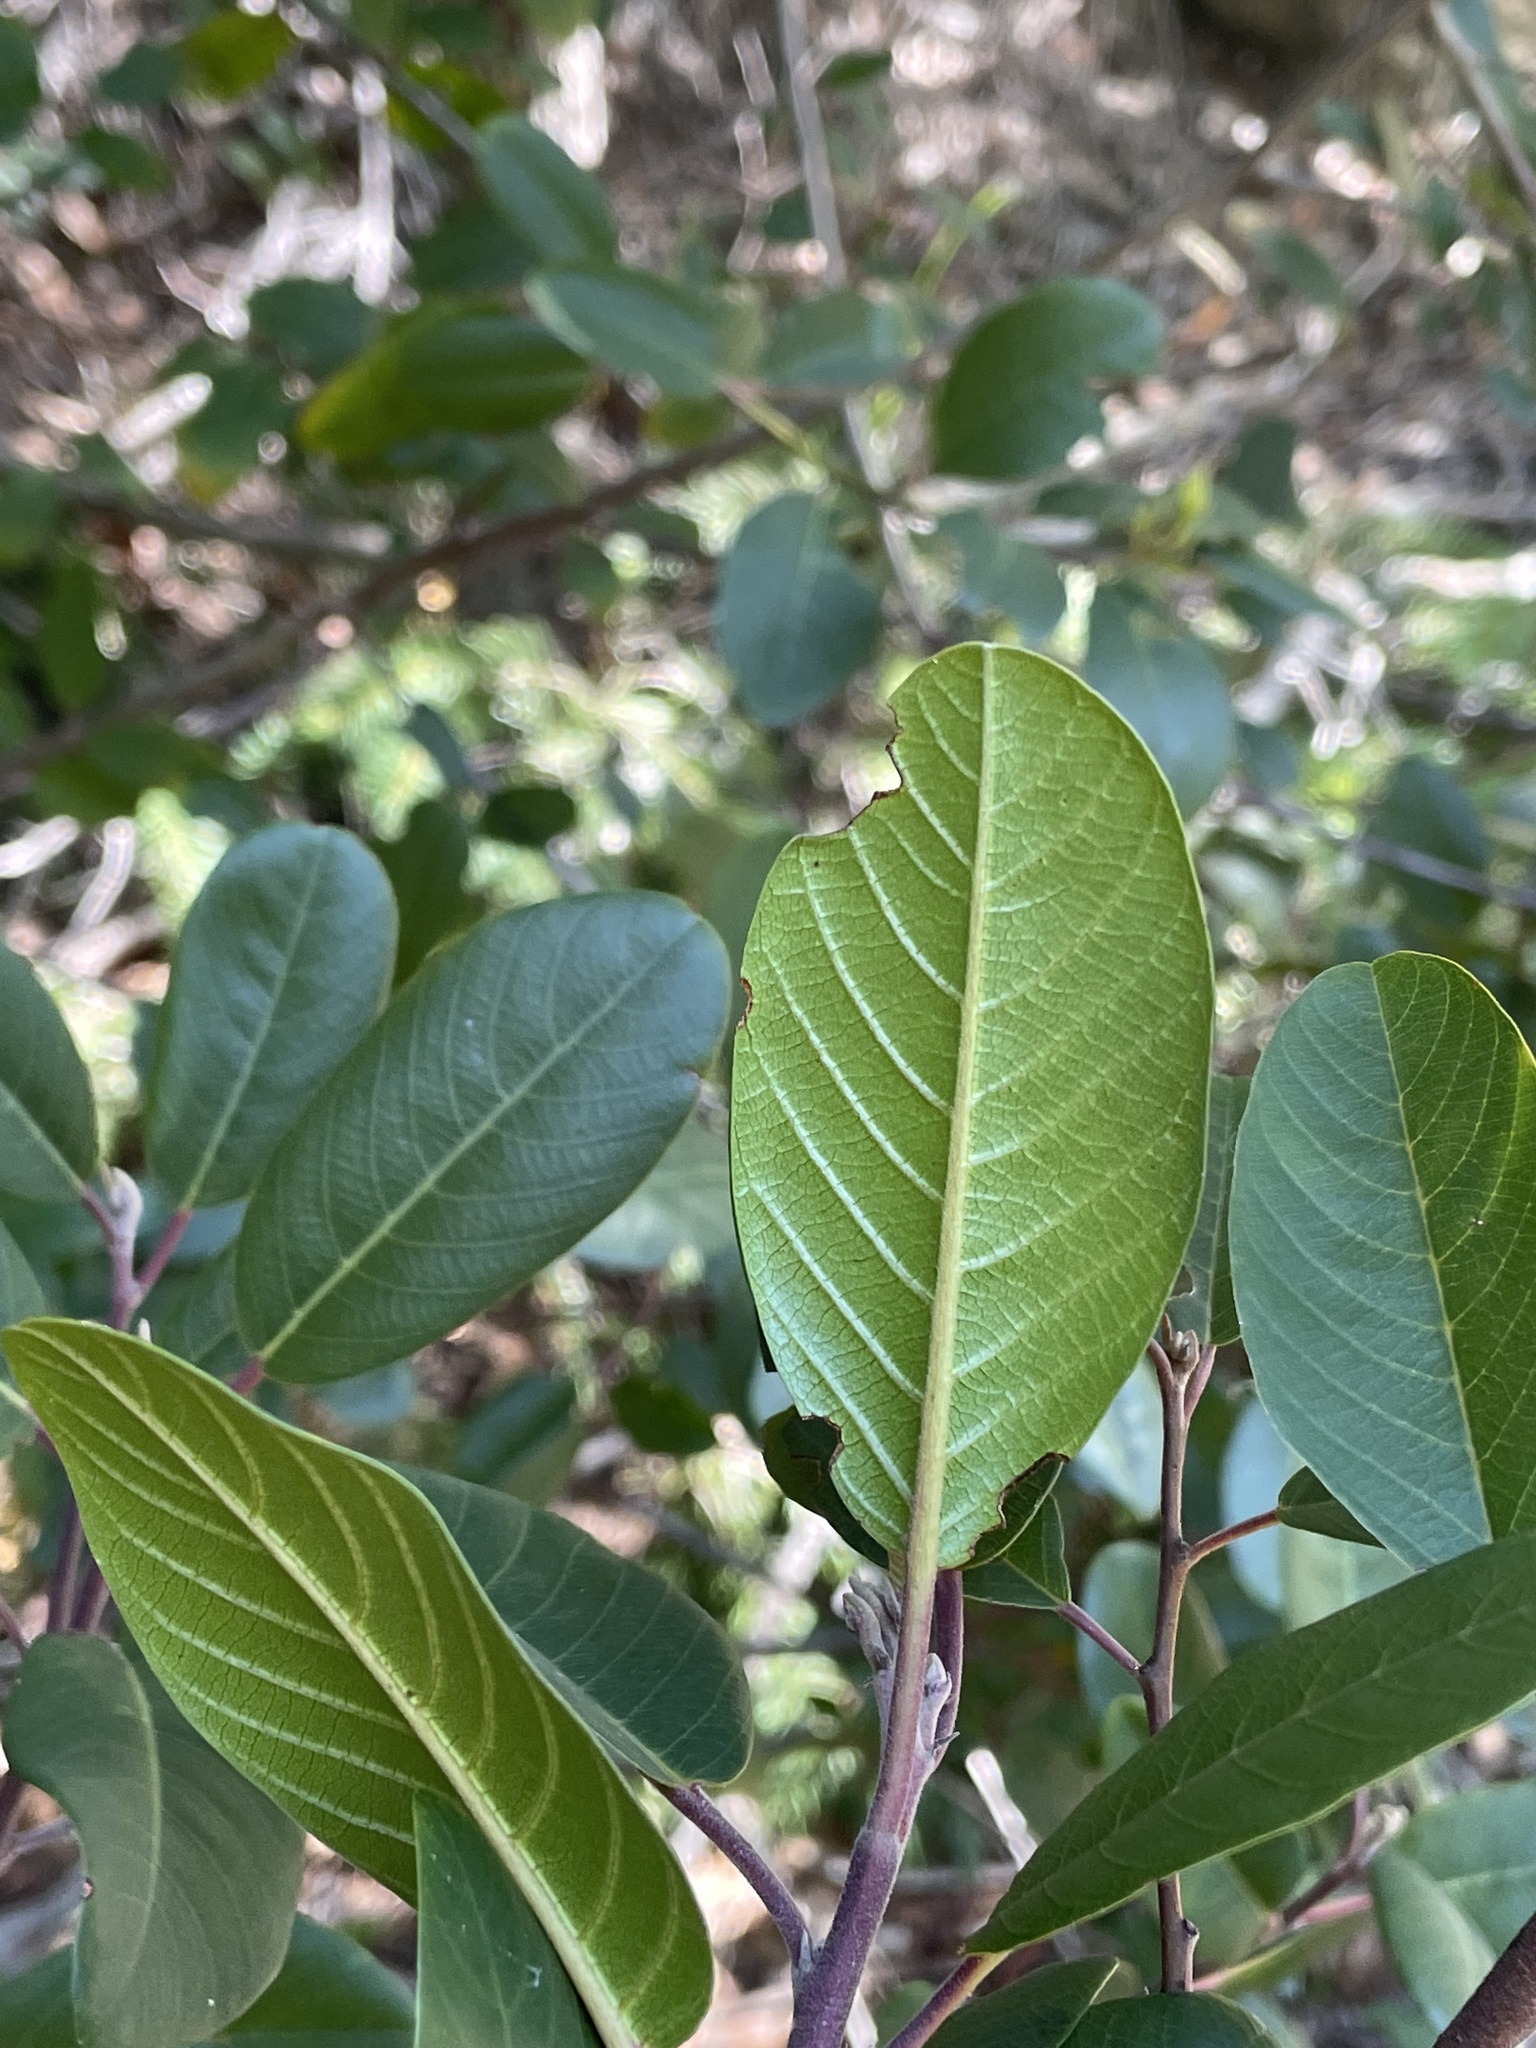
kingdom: Plantae
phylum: Tracheophyta
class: Magnoliopsida
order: Rosales
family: Rhamnaceae
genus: Frangula
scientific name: Frangula californica
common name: California buckthorn
